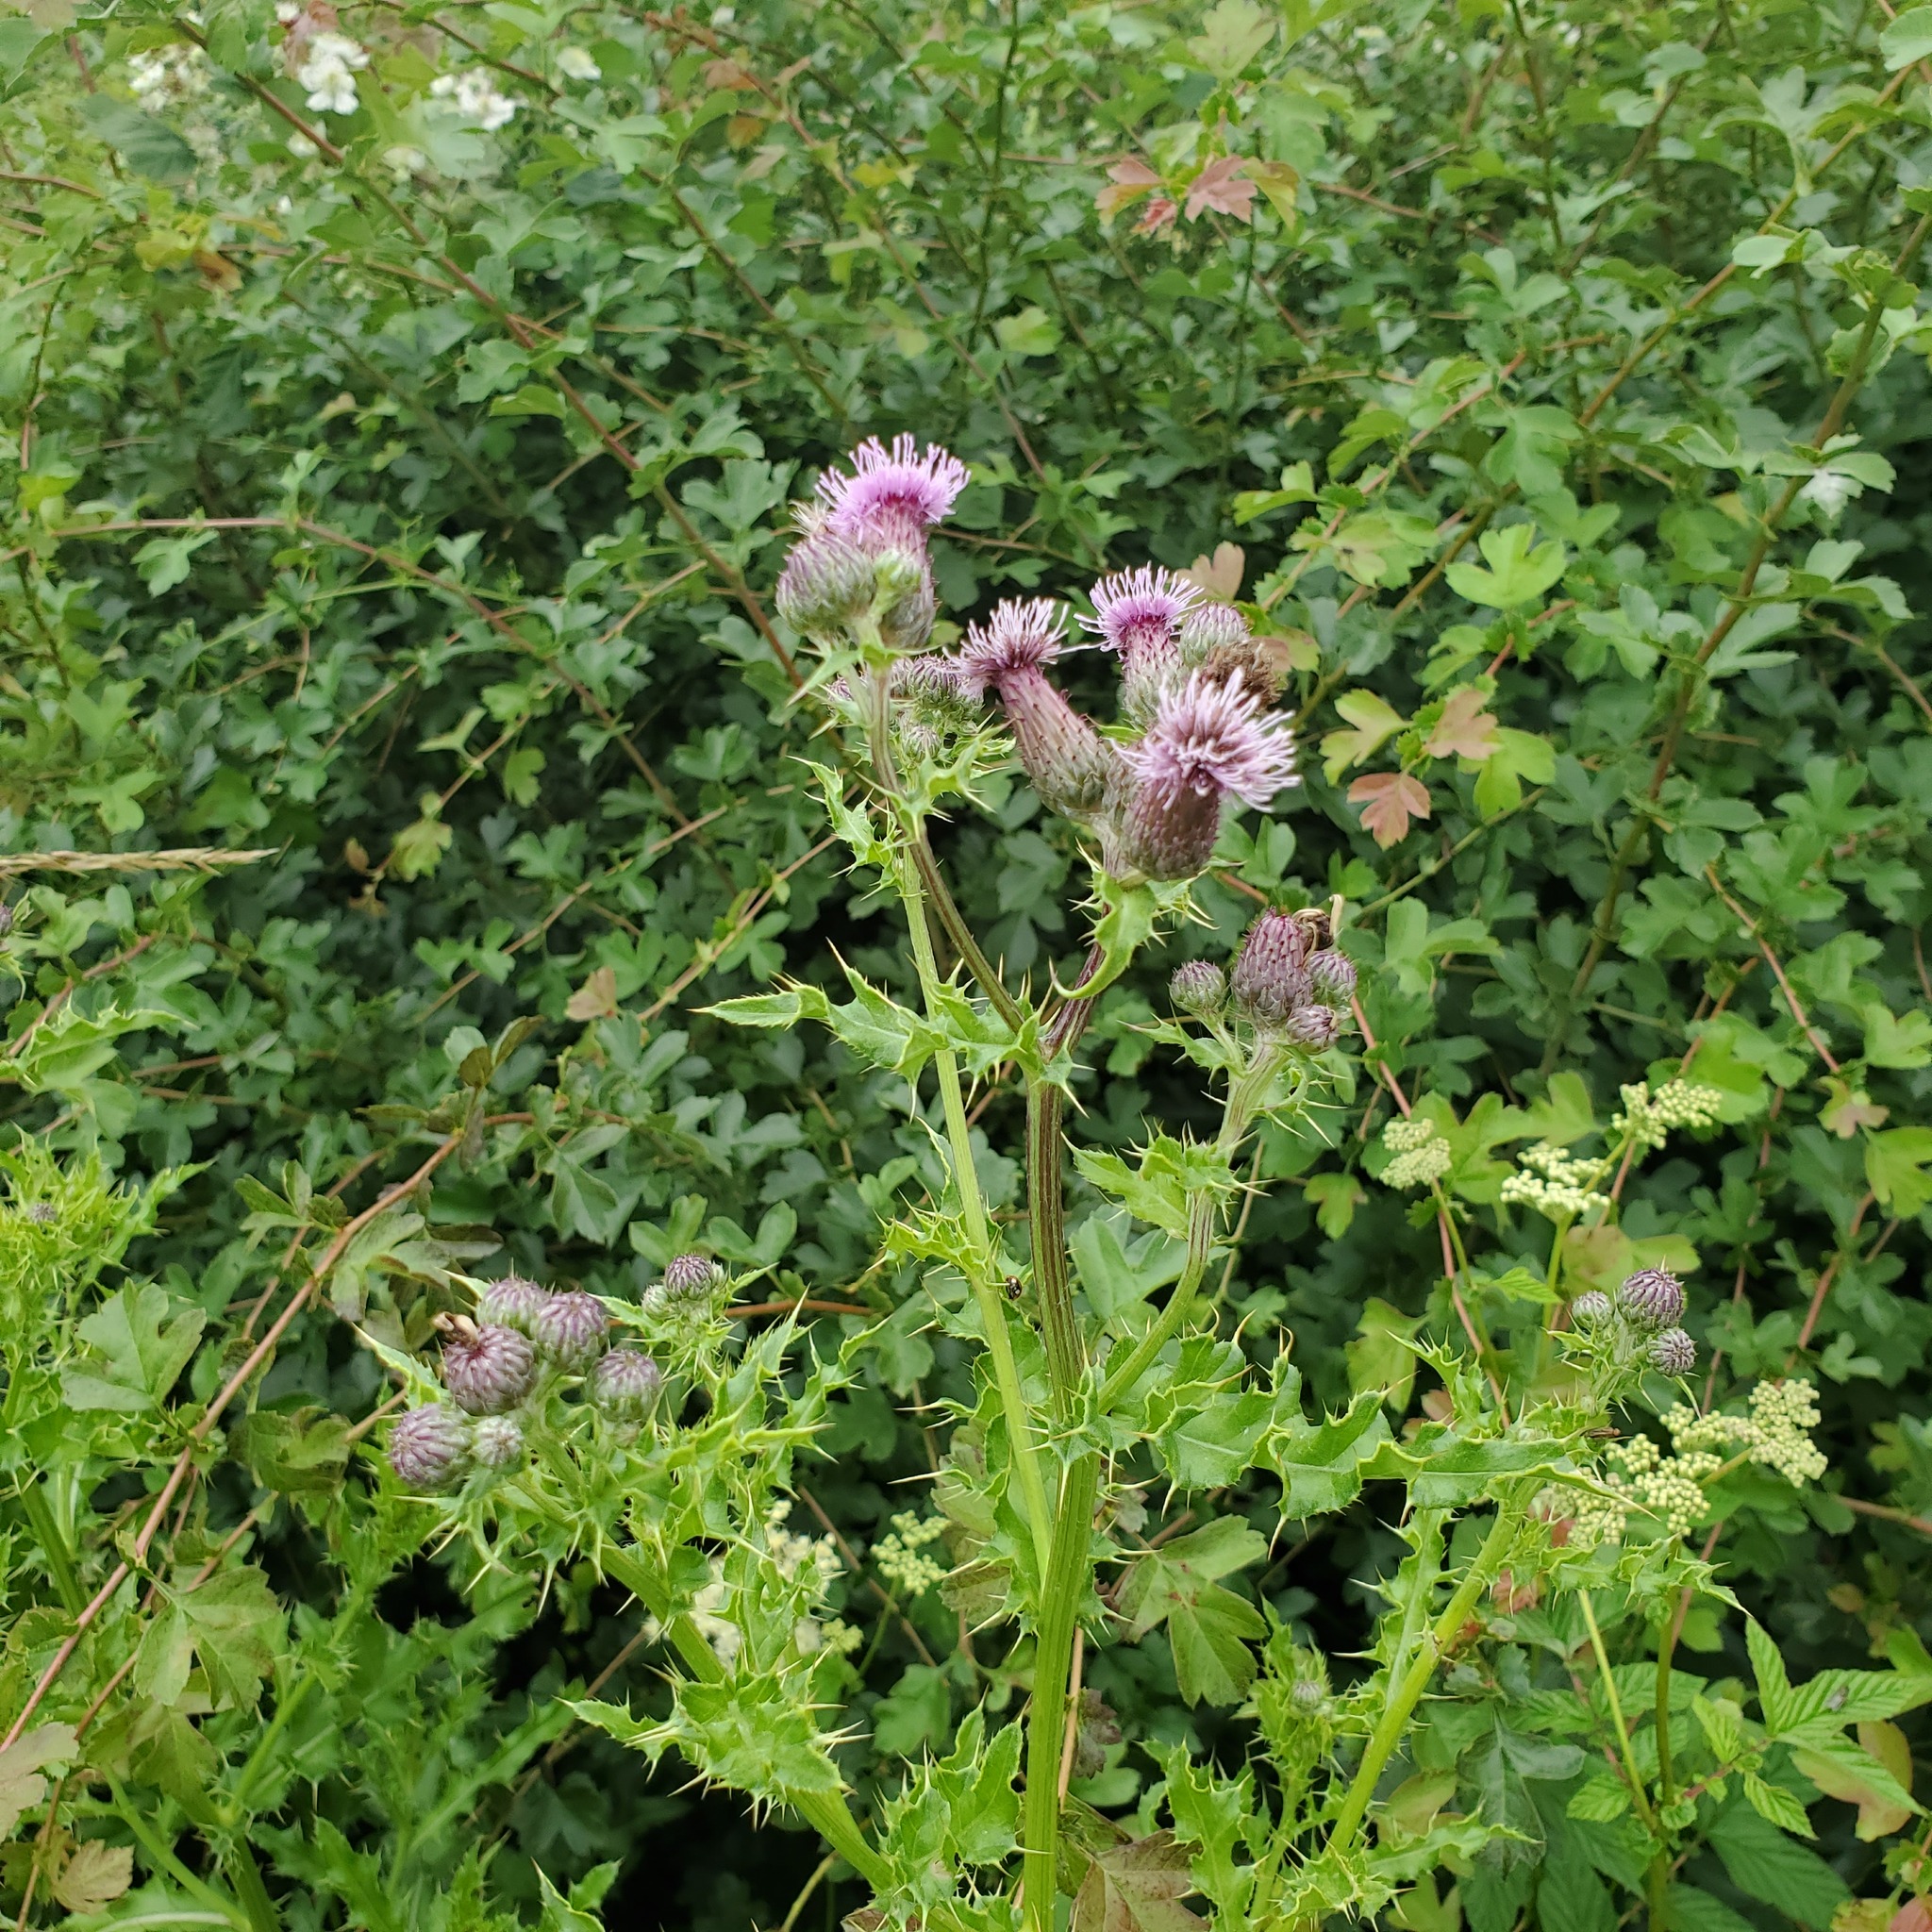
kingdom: Plantae
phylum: Tracheophyta
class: Magnoliopsida
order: Asterales
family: Asteraceae
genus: Cirsium
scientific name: Cirsium arvense
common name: Creeping thistle
